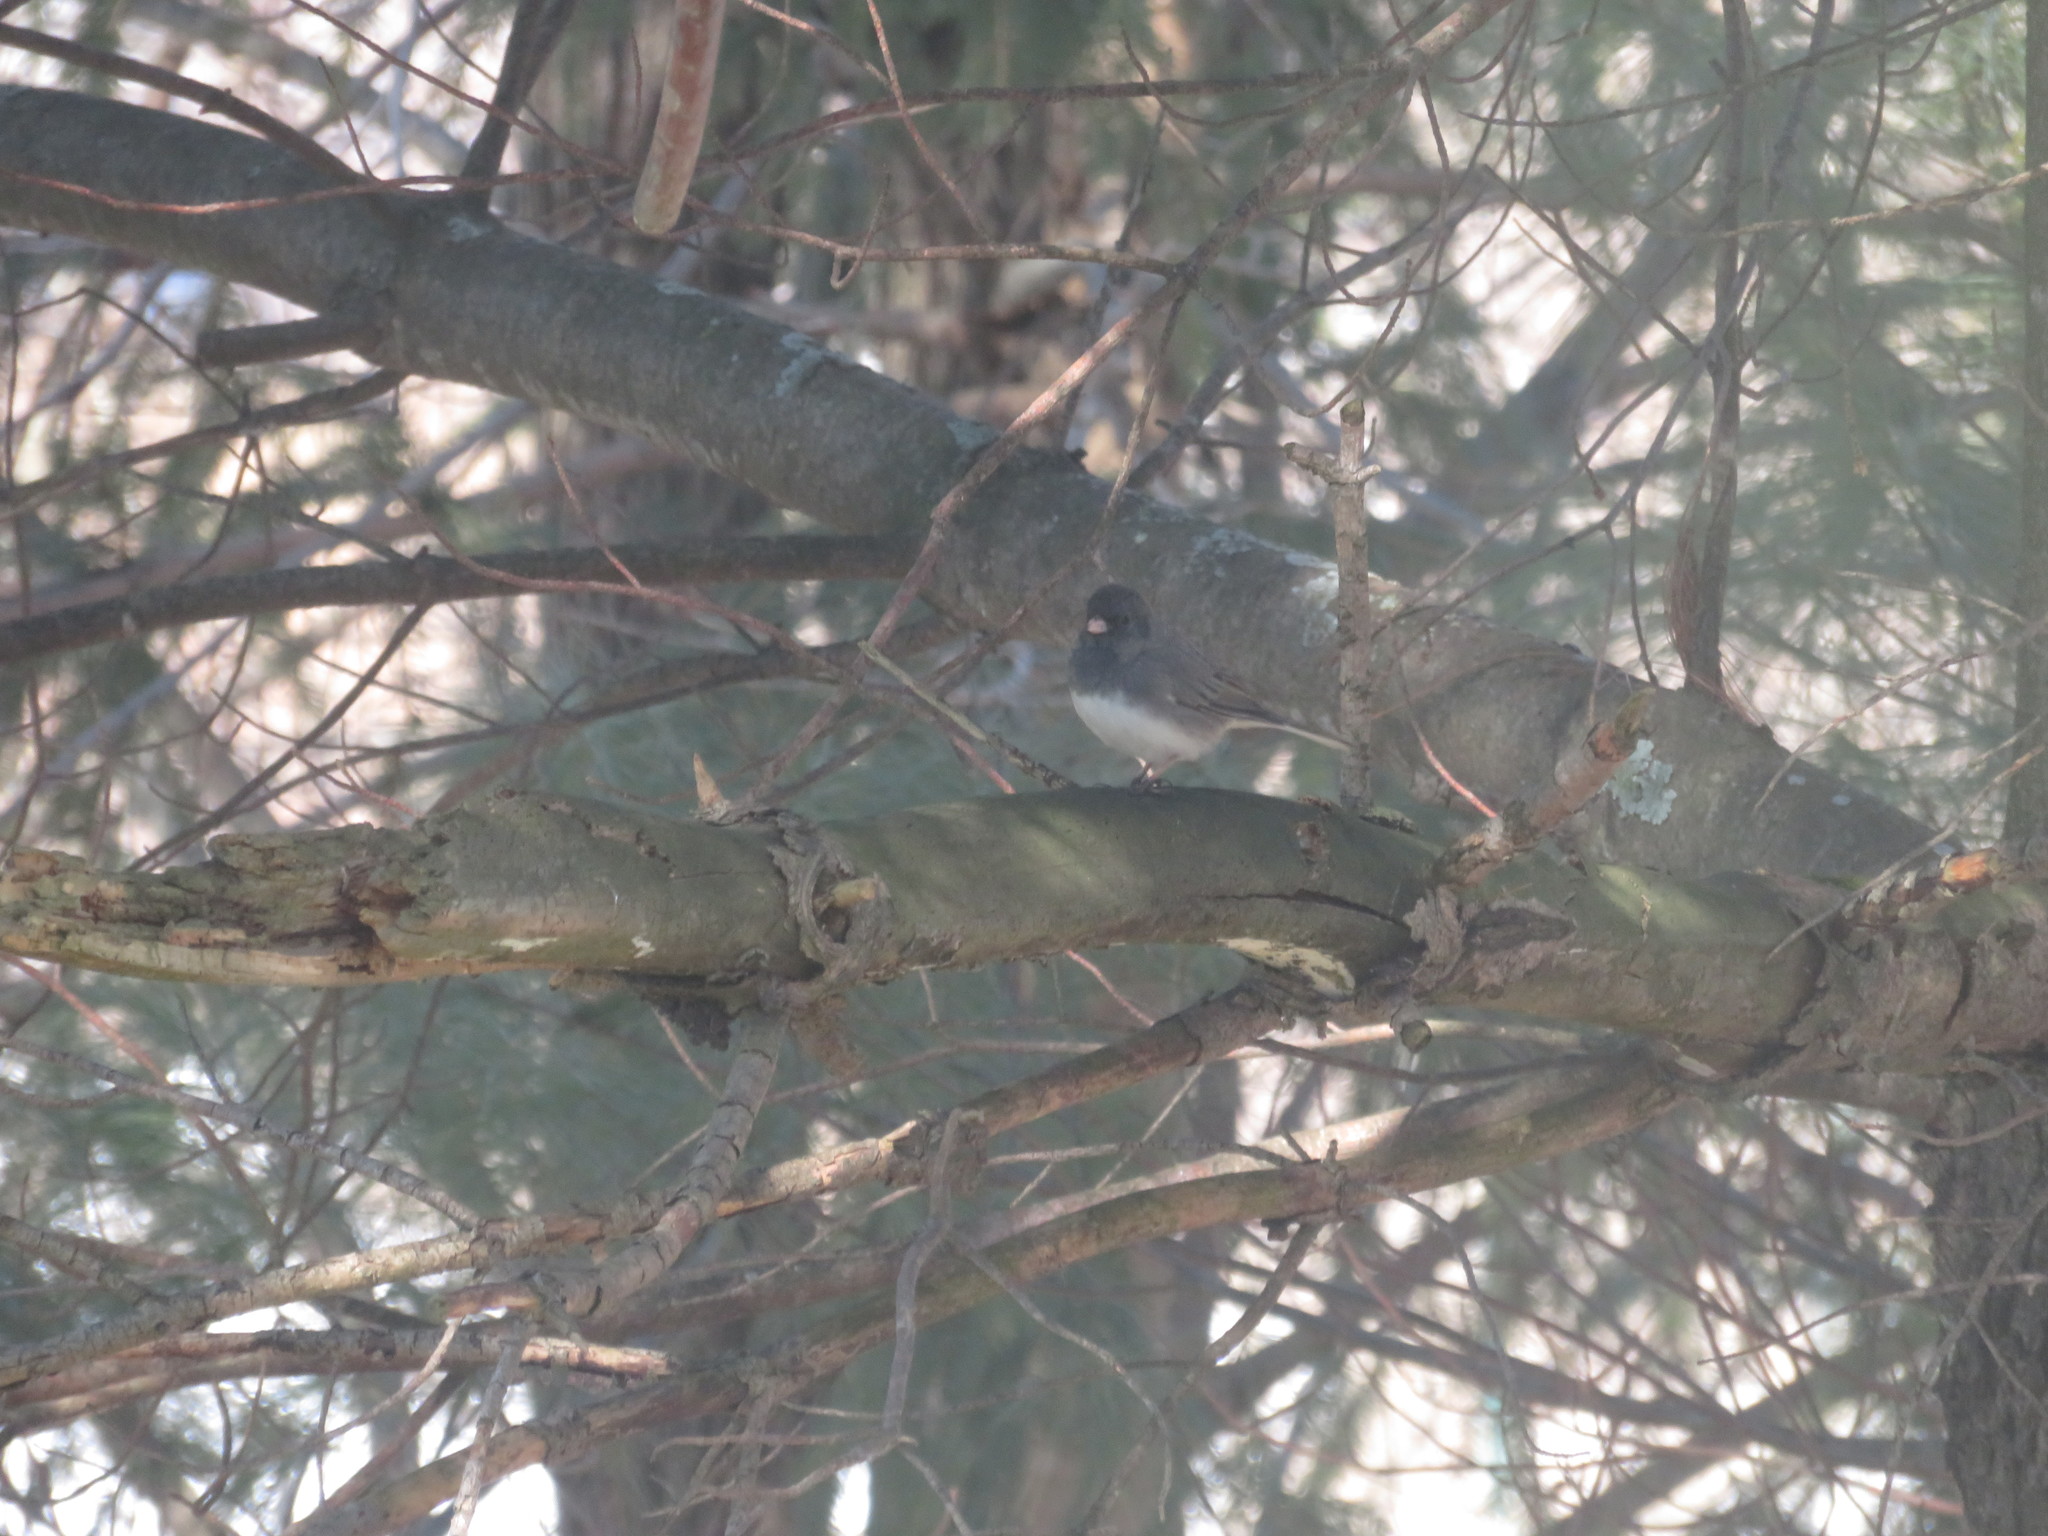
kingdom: Animalia
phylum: Chordata
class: Aves
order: Passeriformes
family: Passerellidae
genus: Junco
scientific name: Junco hyemalis
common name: Dark-eyed junco
